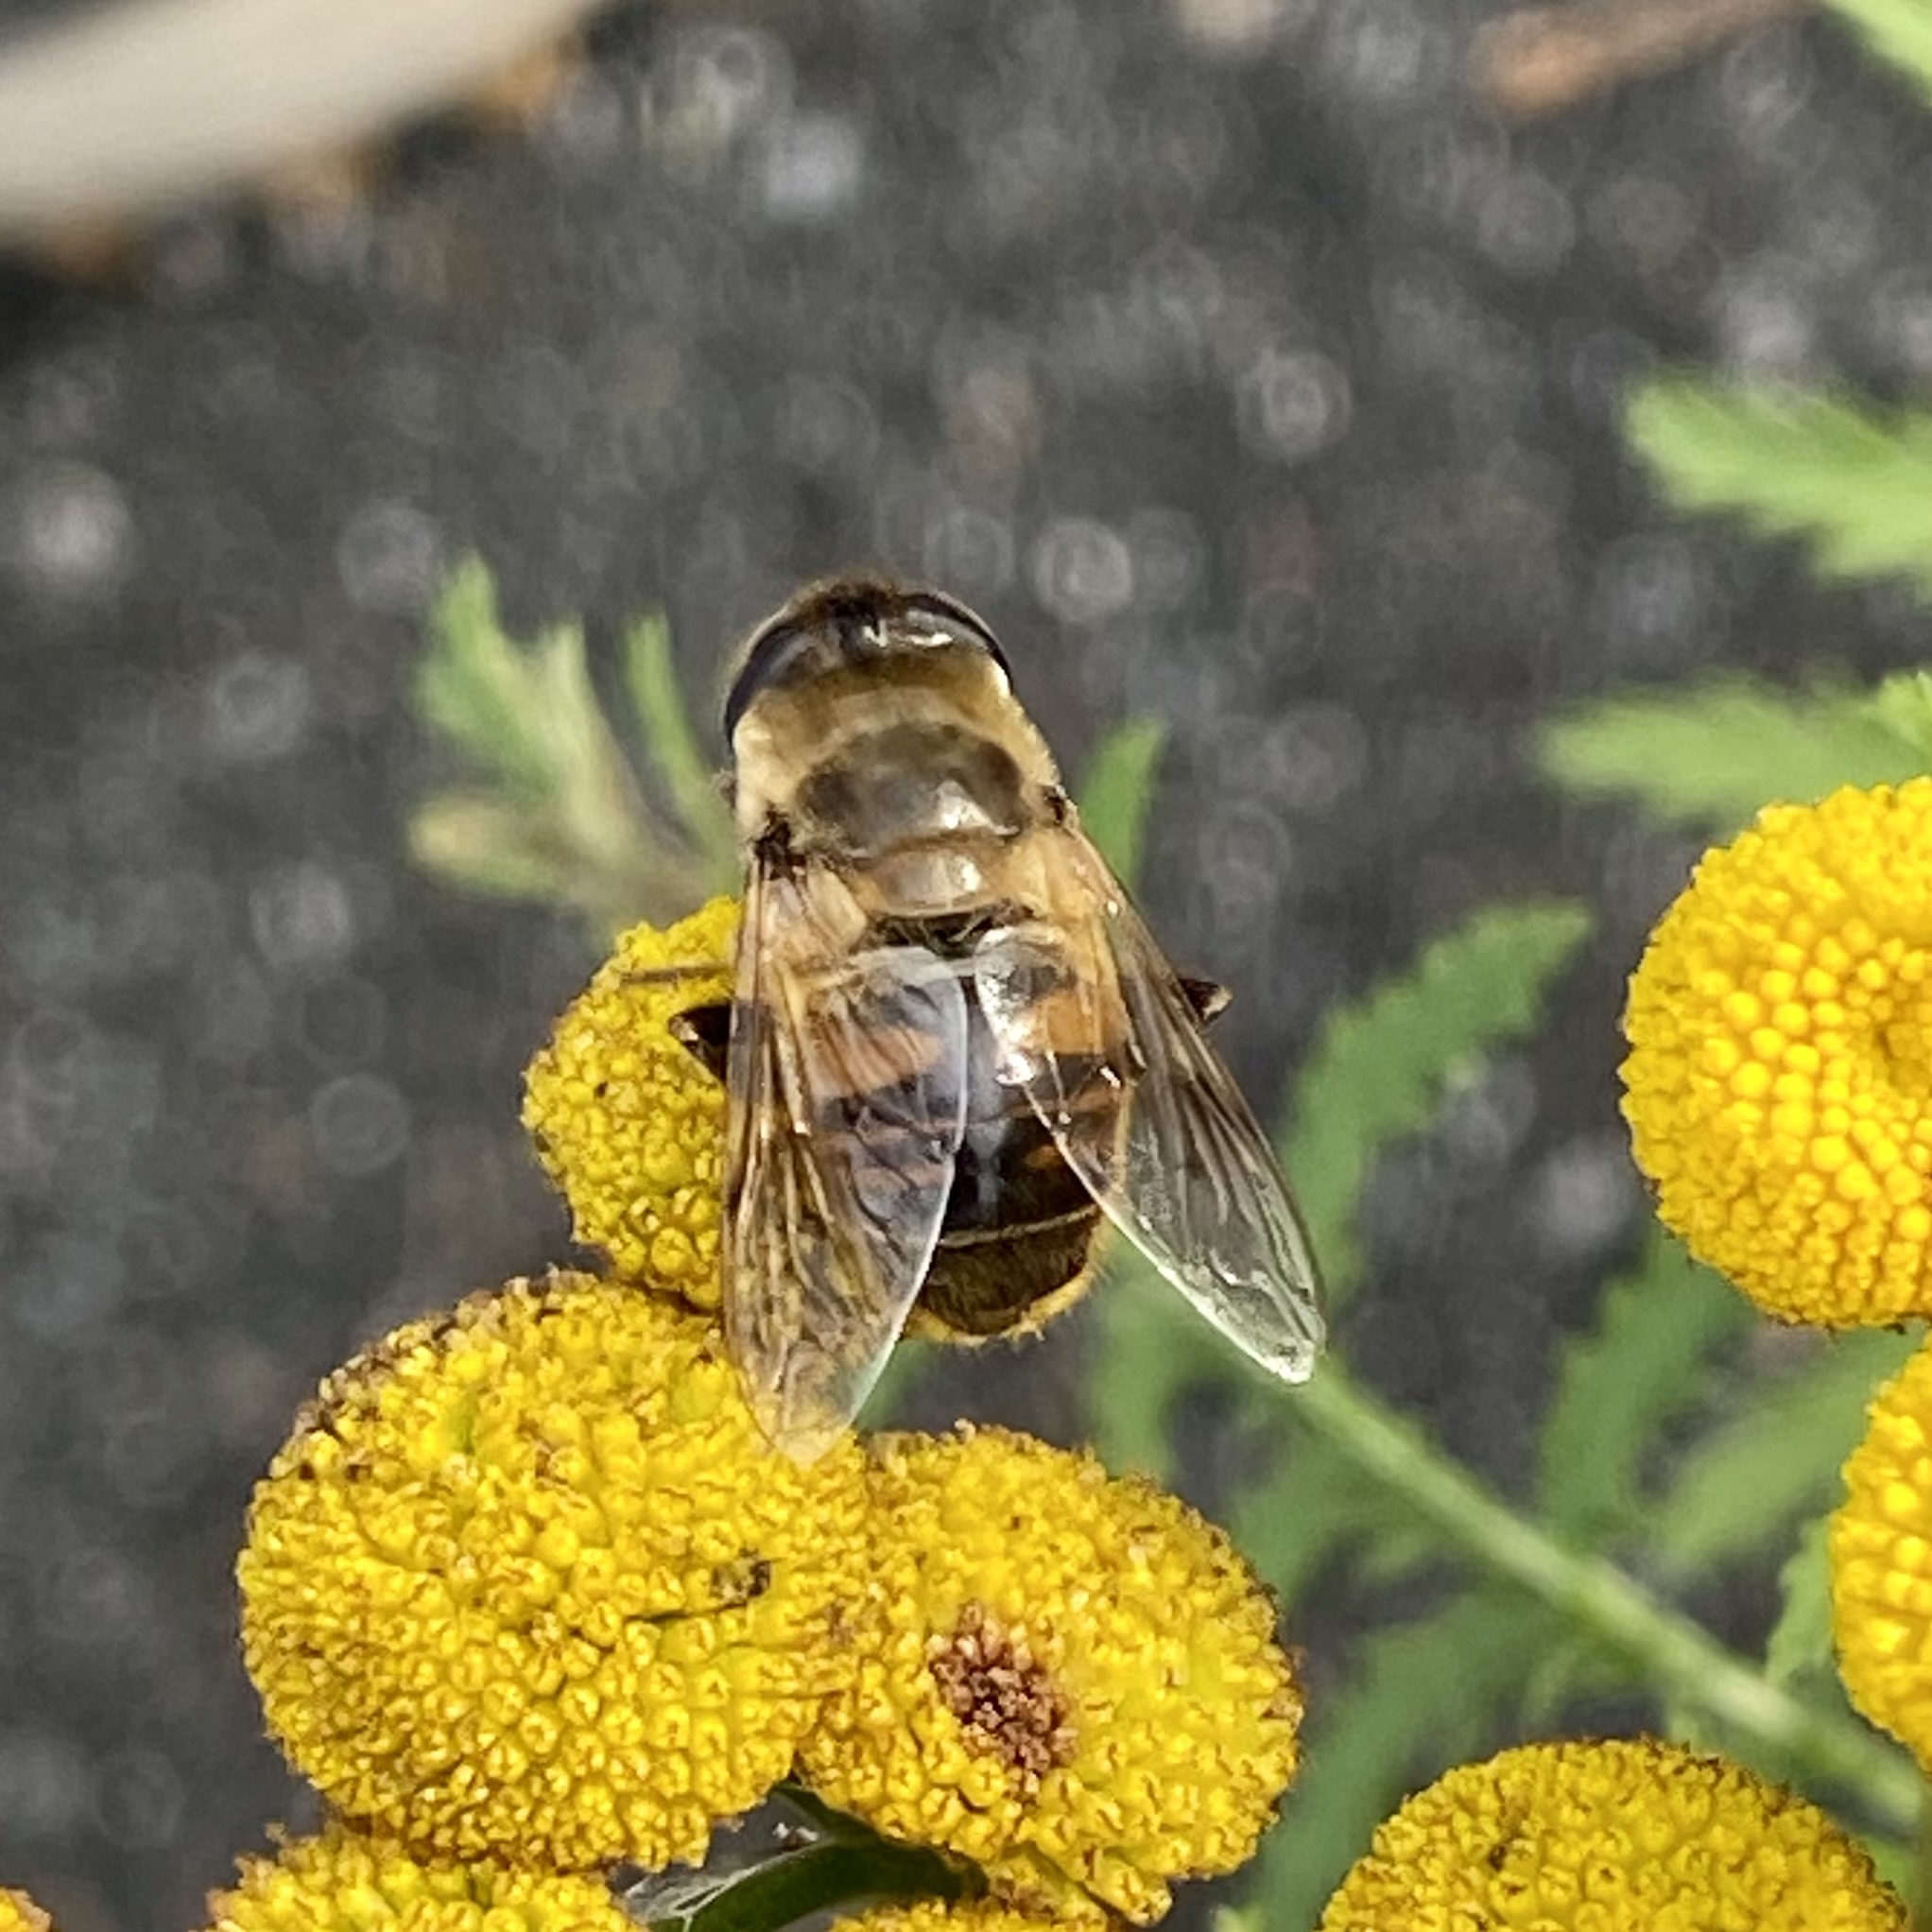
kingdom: Animalia
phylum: Arthropoda
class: Insecta
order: Diptera
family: Syrphidae
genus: Eristalis
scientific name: Eristalis tenax
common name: Drone fly
